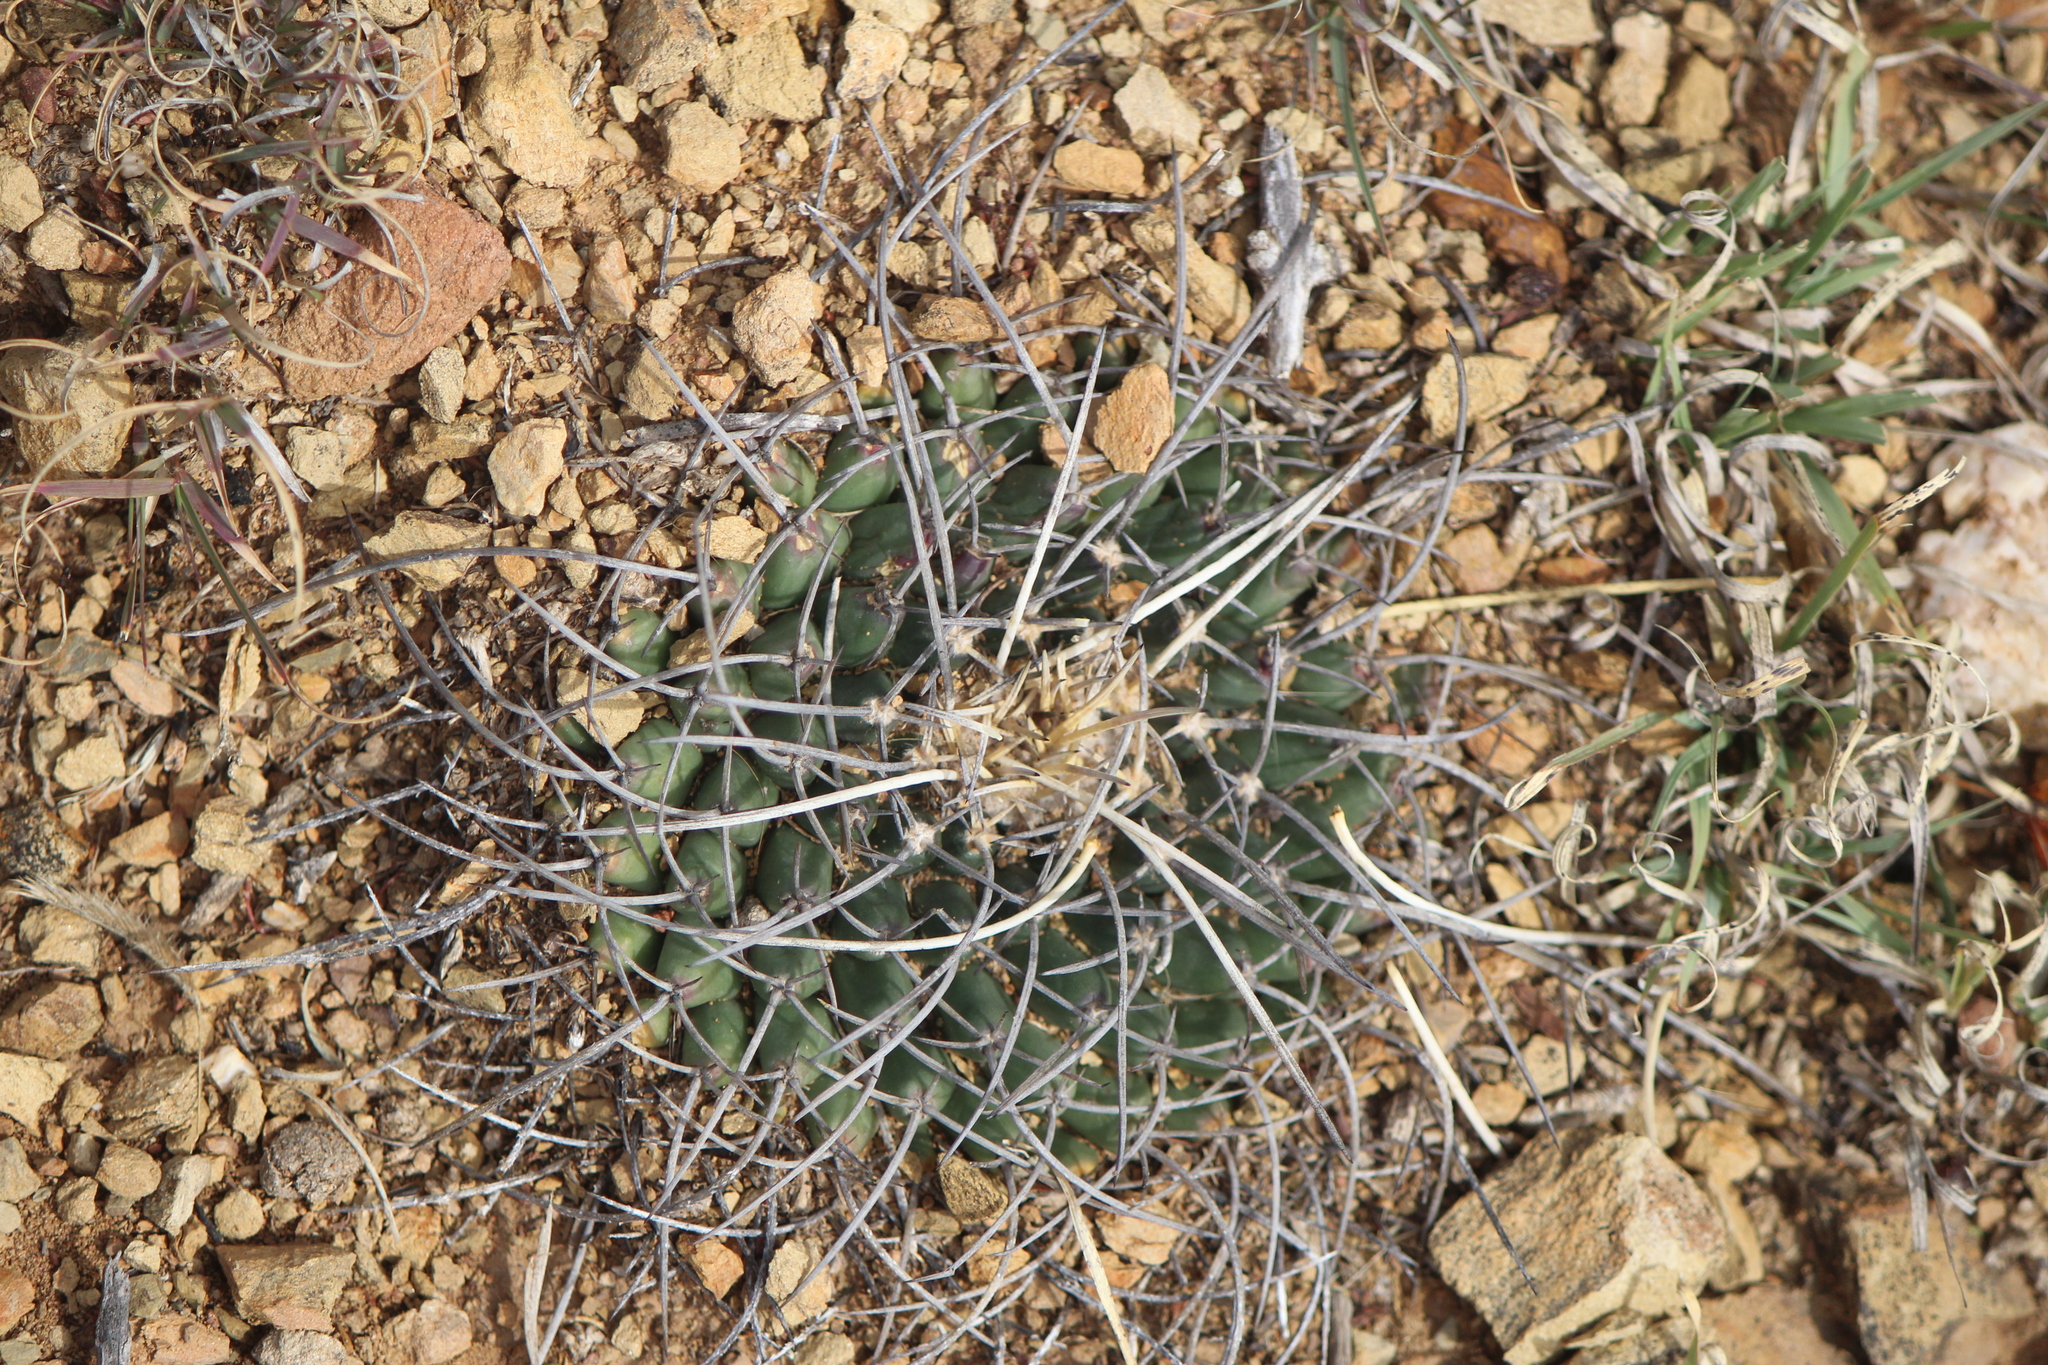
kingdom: Plantae
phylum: Tracheophyta
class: Magnoliopsida
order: Caryophyllales
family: Cactaceae
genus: Mammillaria
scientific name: Mammillaria magnimamma
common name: Mexican pincushion
